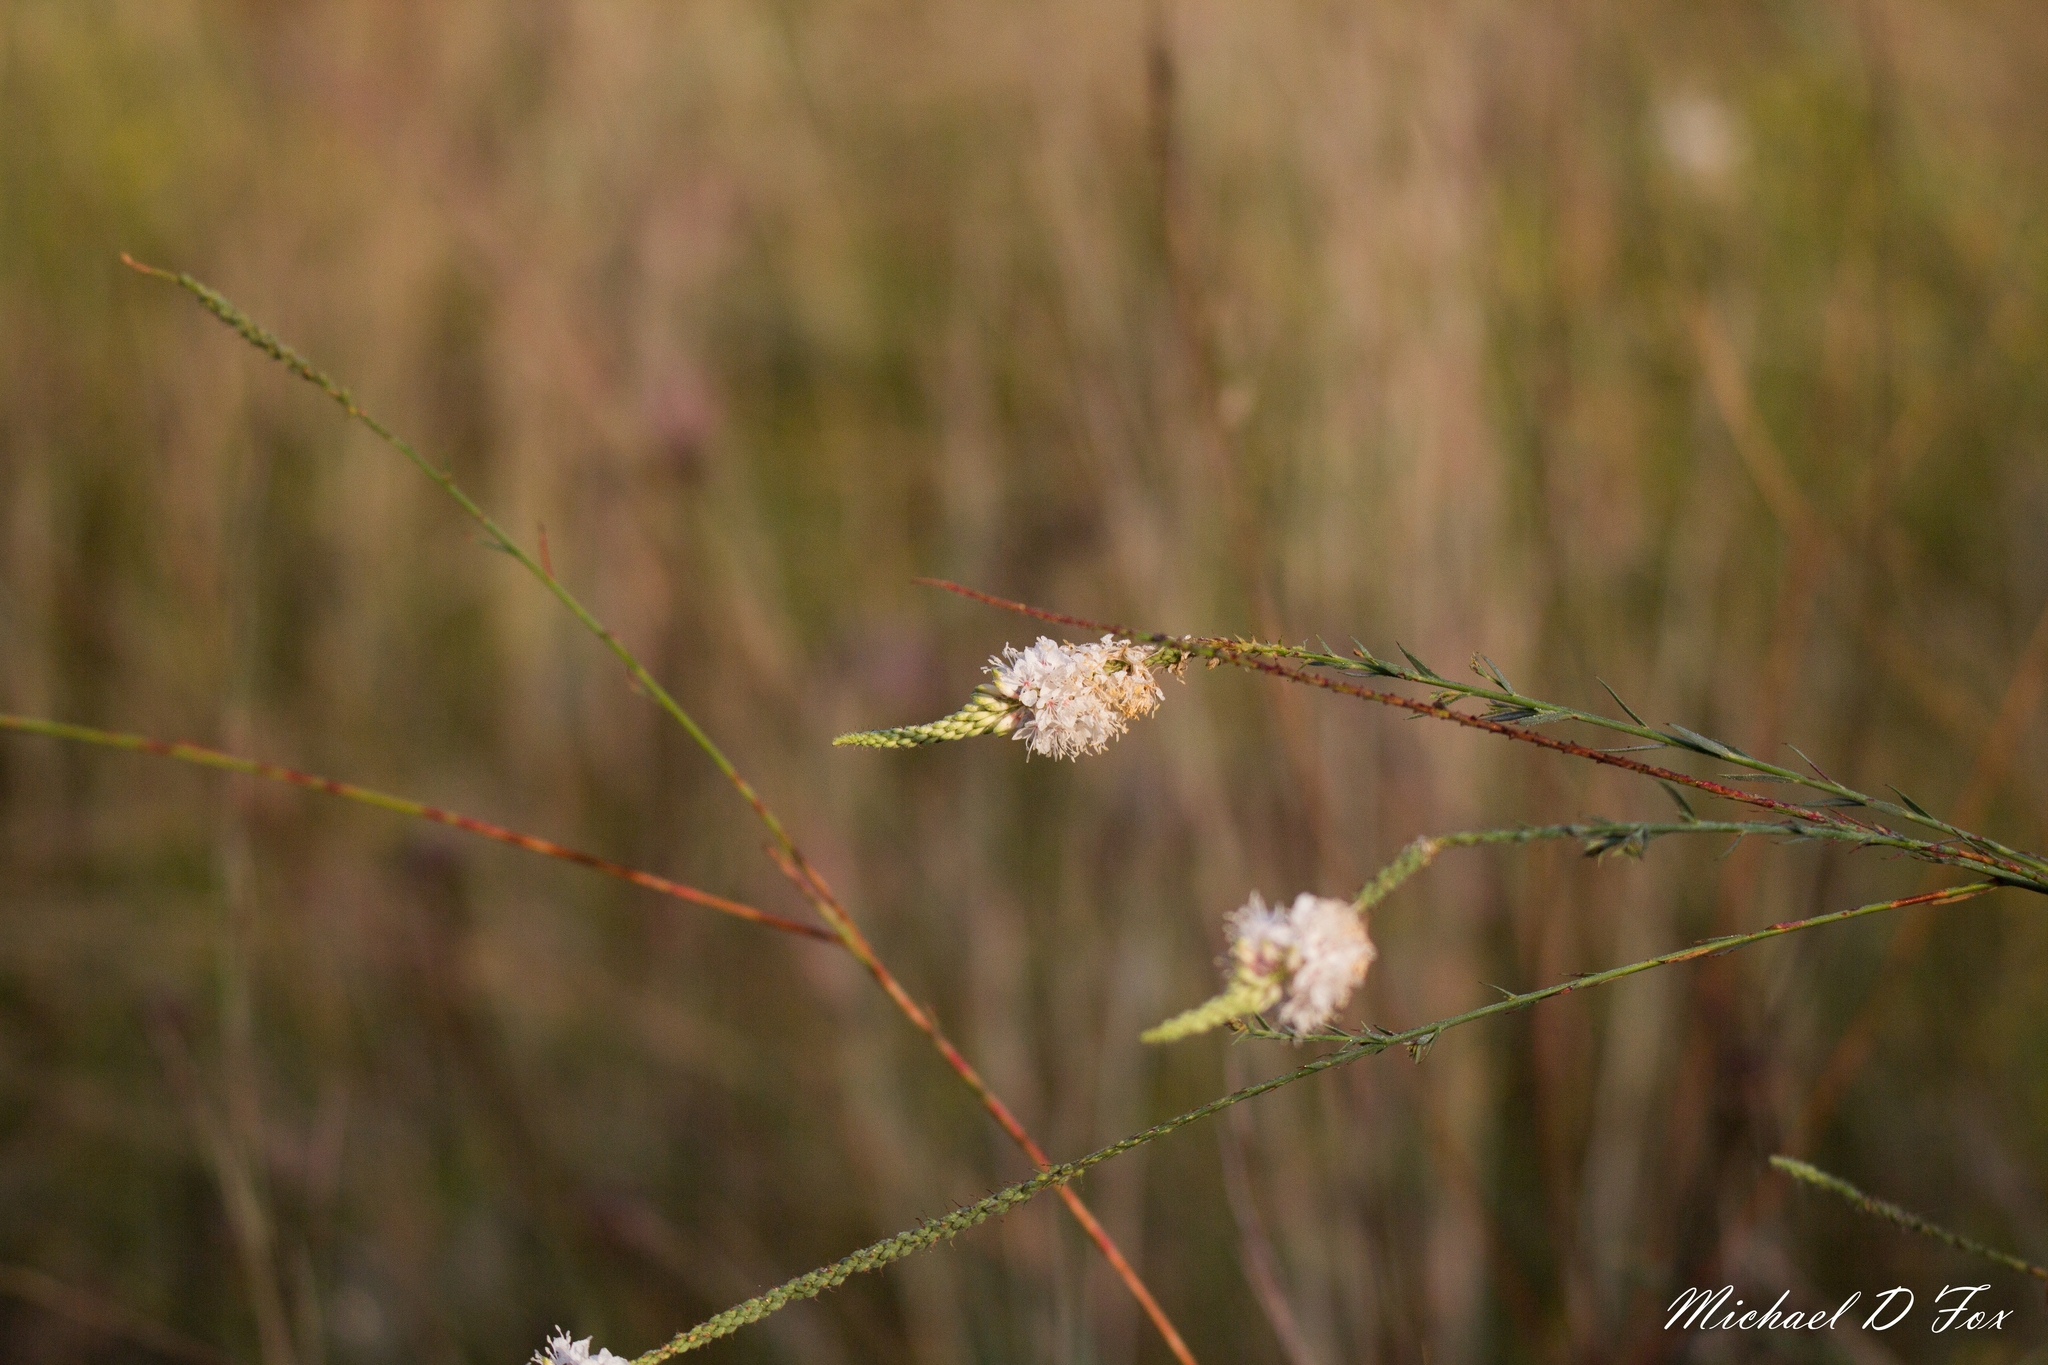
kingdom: Plantae
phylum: Tracheophyta
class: Magnoliopsida
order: Myrtales
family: Onagraceae
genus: Oenothera
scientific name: Oenothera glaucifolia
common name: False gaura
